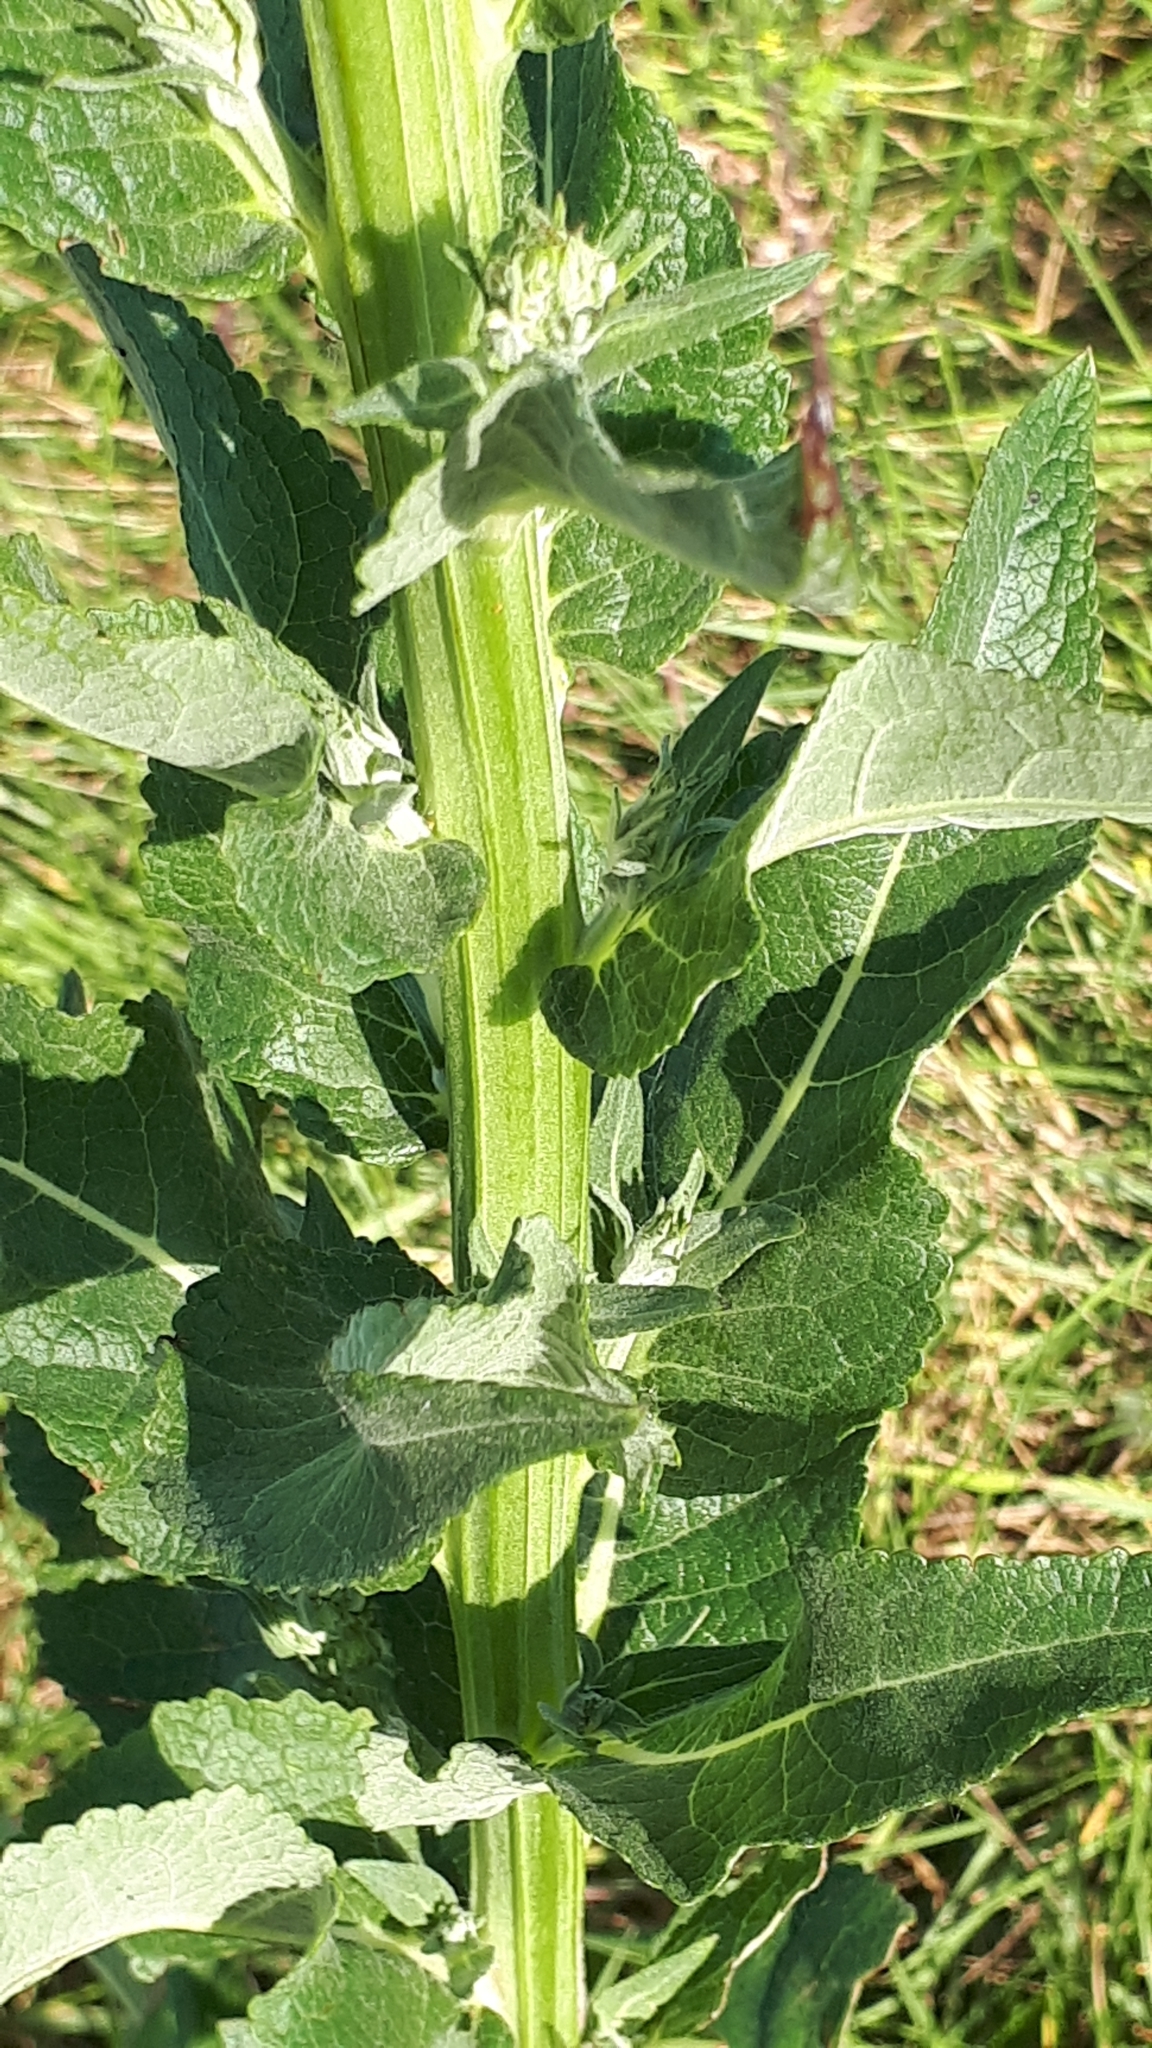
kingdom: Plantae
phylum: Tracheophyta
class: Magnoliopsida
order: Lamiales
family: Scrophulariaceae
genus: Verbascum
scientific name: Verbascum lychnitis
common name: White mullein
